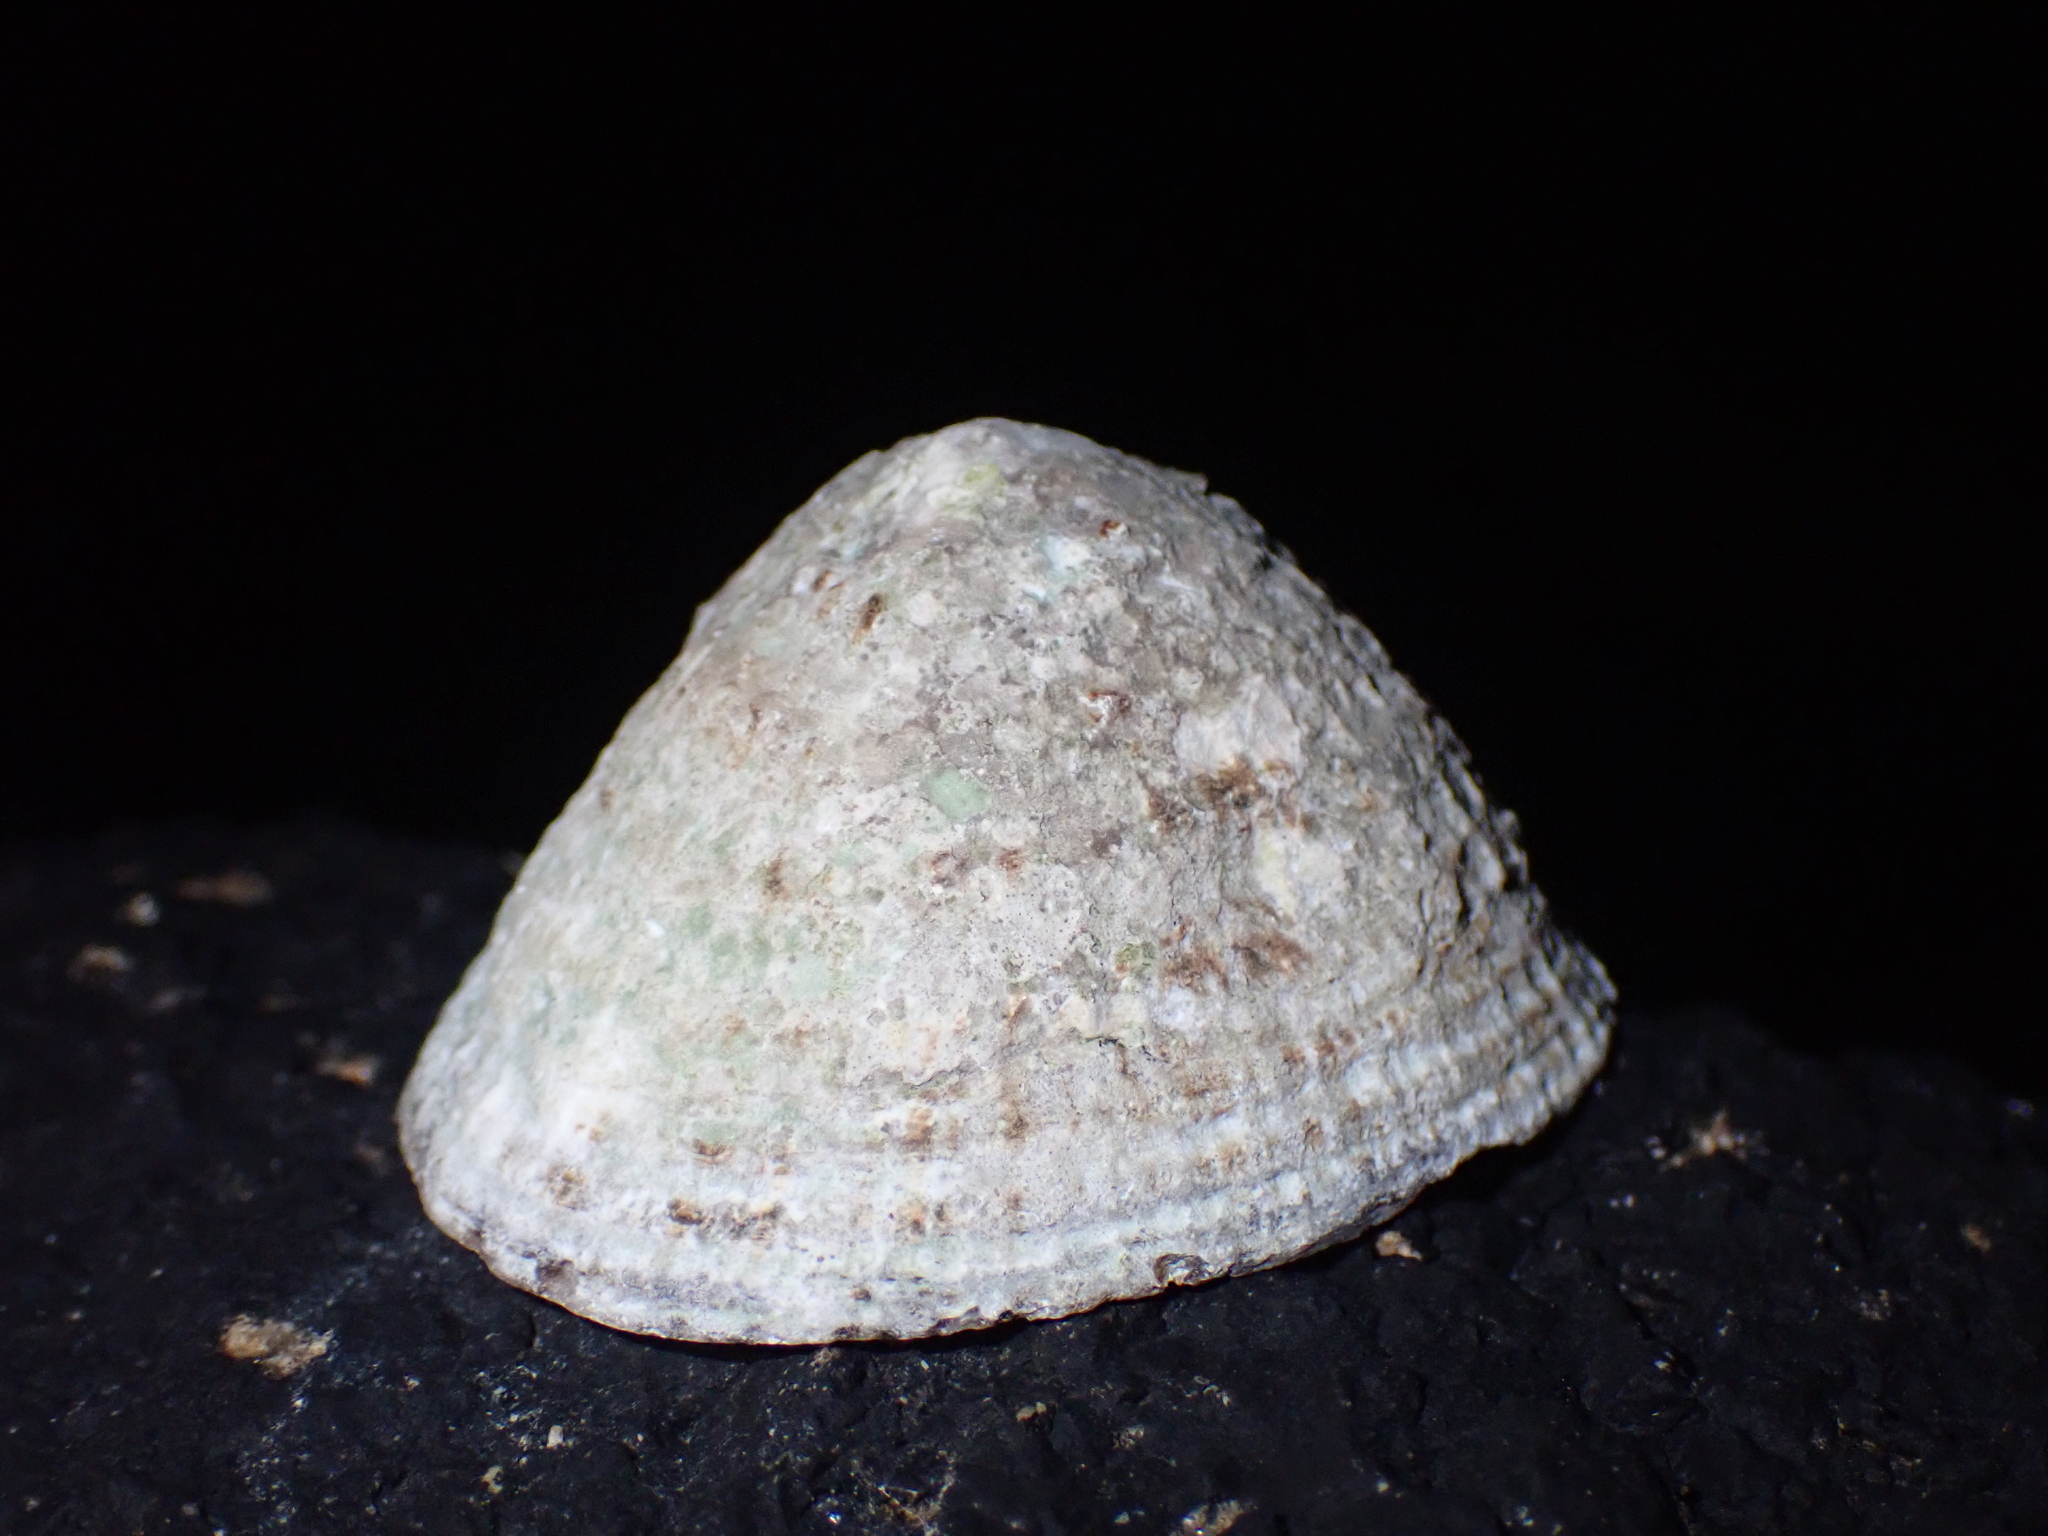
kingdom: Animalia
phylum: Mollusca
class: Gastropoda
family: Patellidae
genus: Patella
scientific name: Patella vulgata
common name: Common limpet
